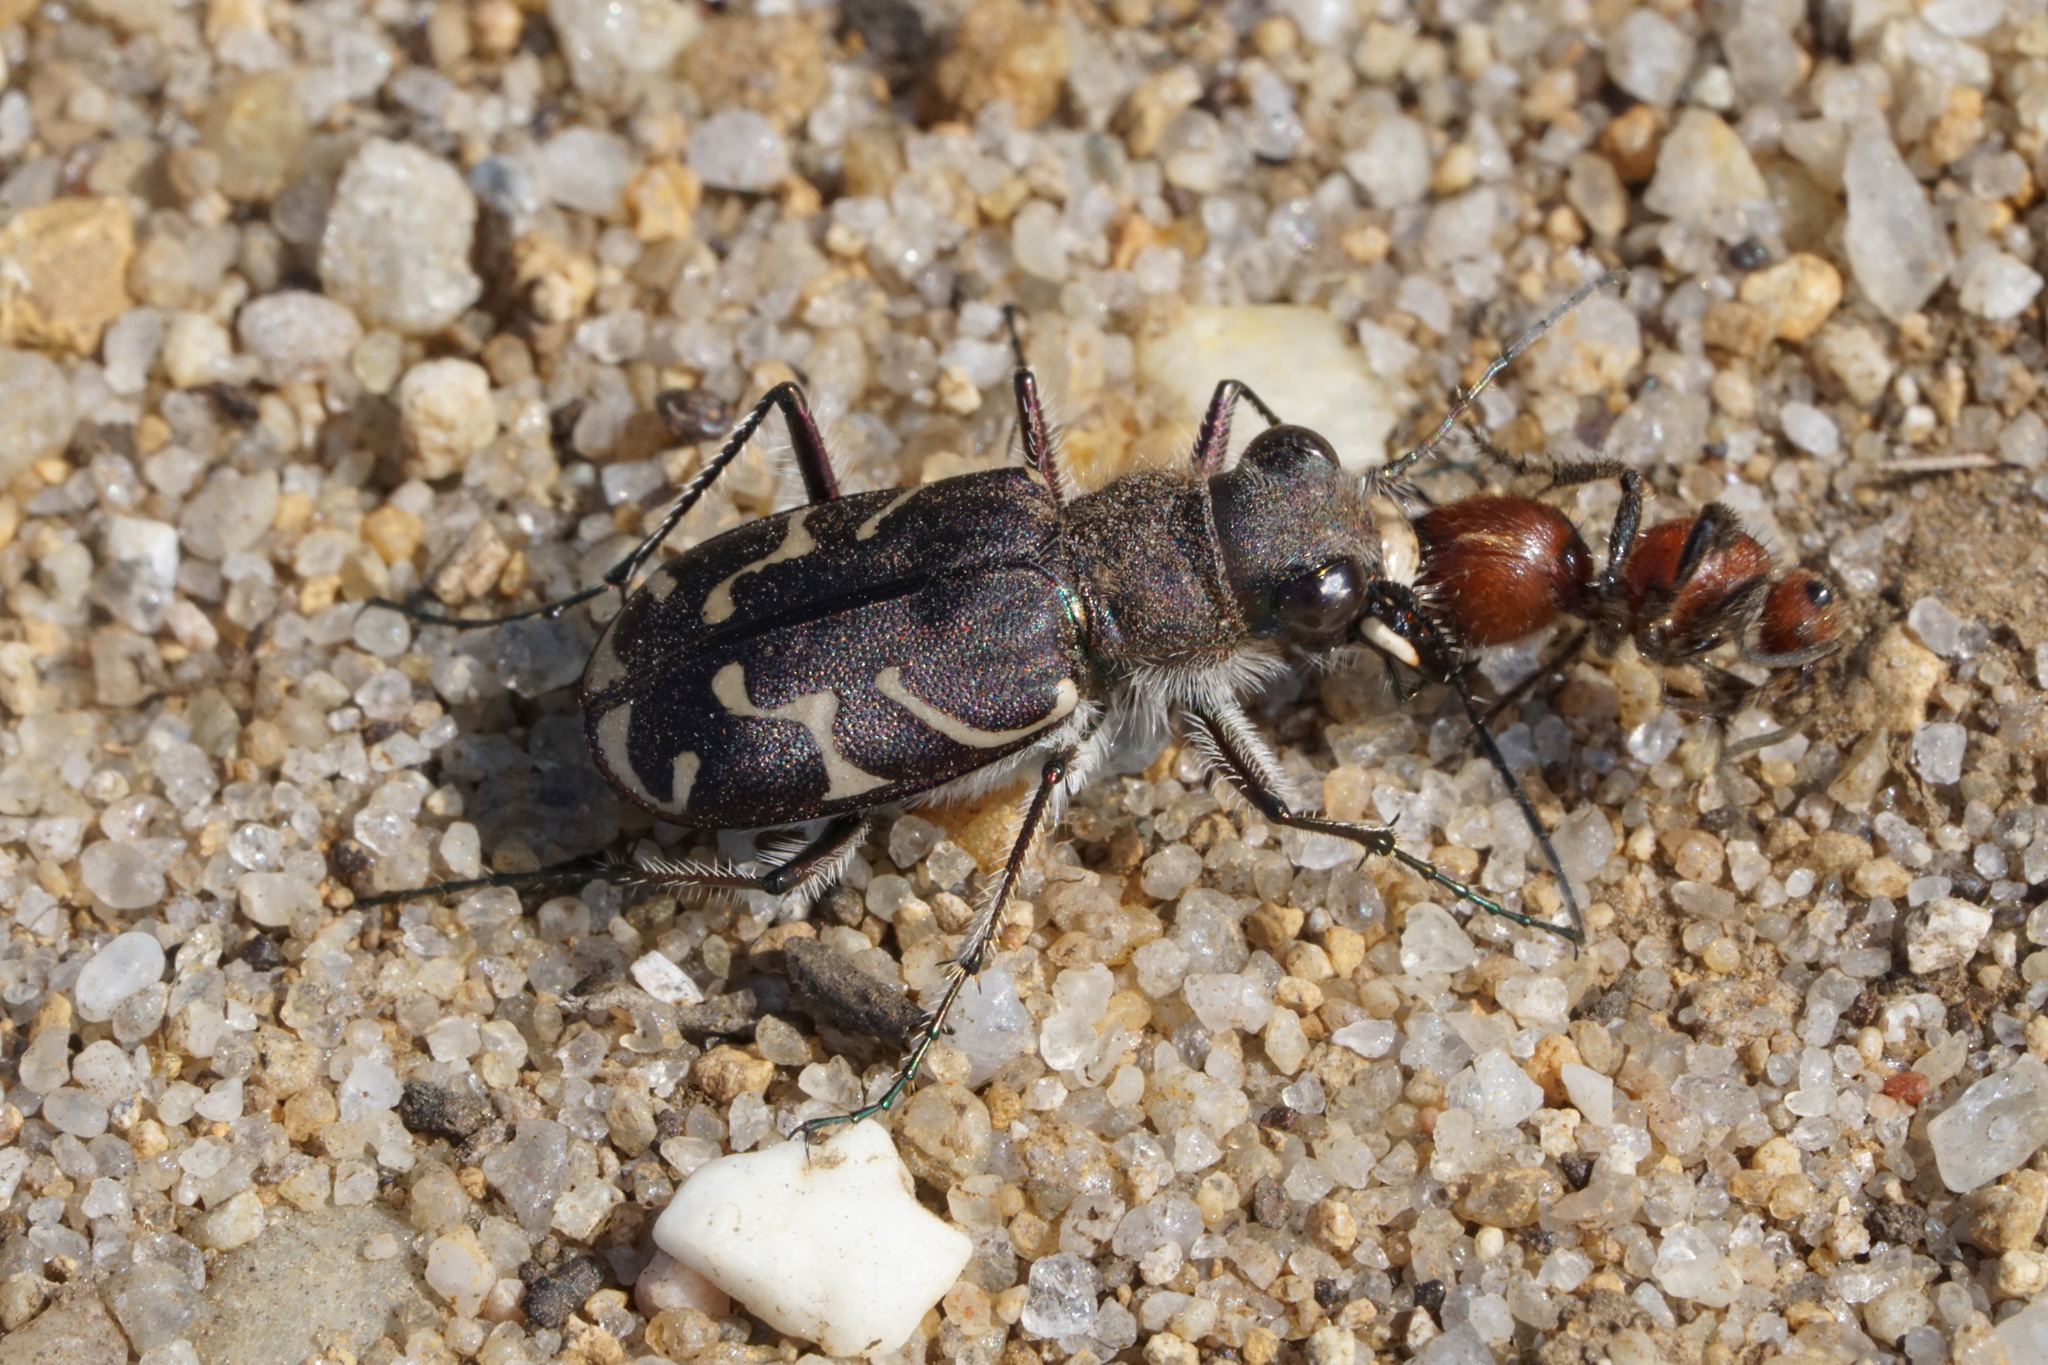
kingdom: Animalia
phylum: Arthropoda
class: Insecta
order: Coleoptera
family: Carabidae
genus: Cicindela
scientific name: Cicindela tranquebarica
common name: Oblique-lined tiger beetle
